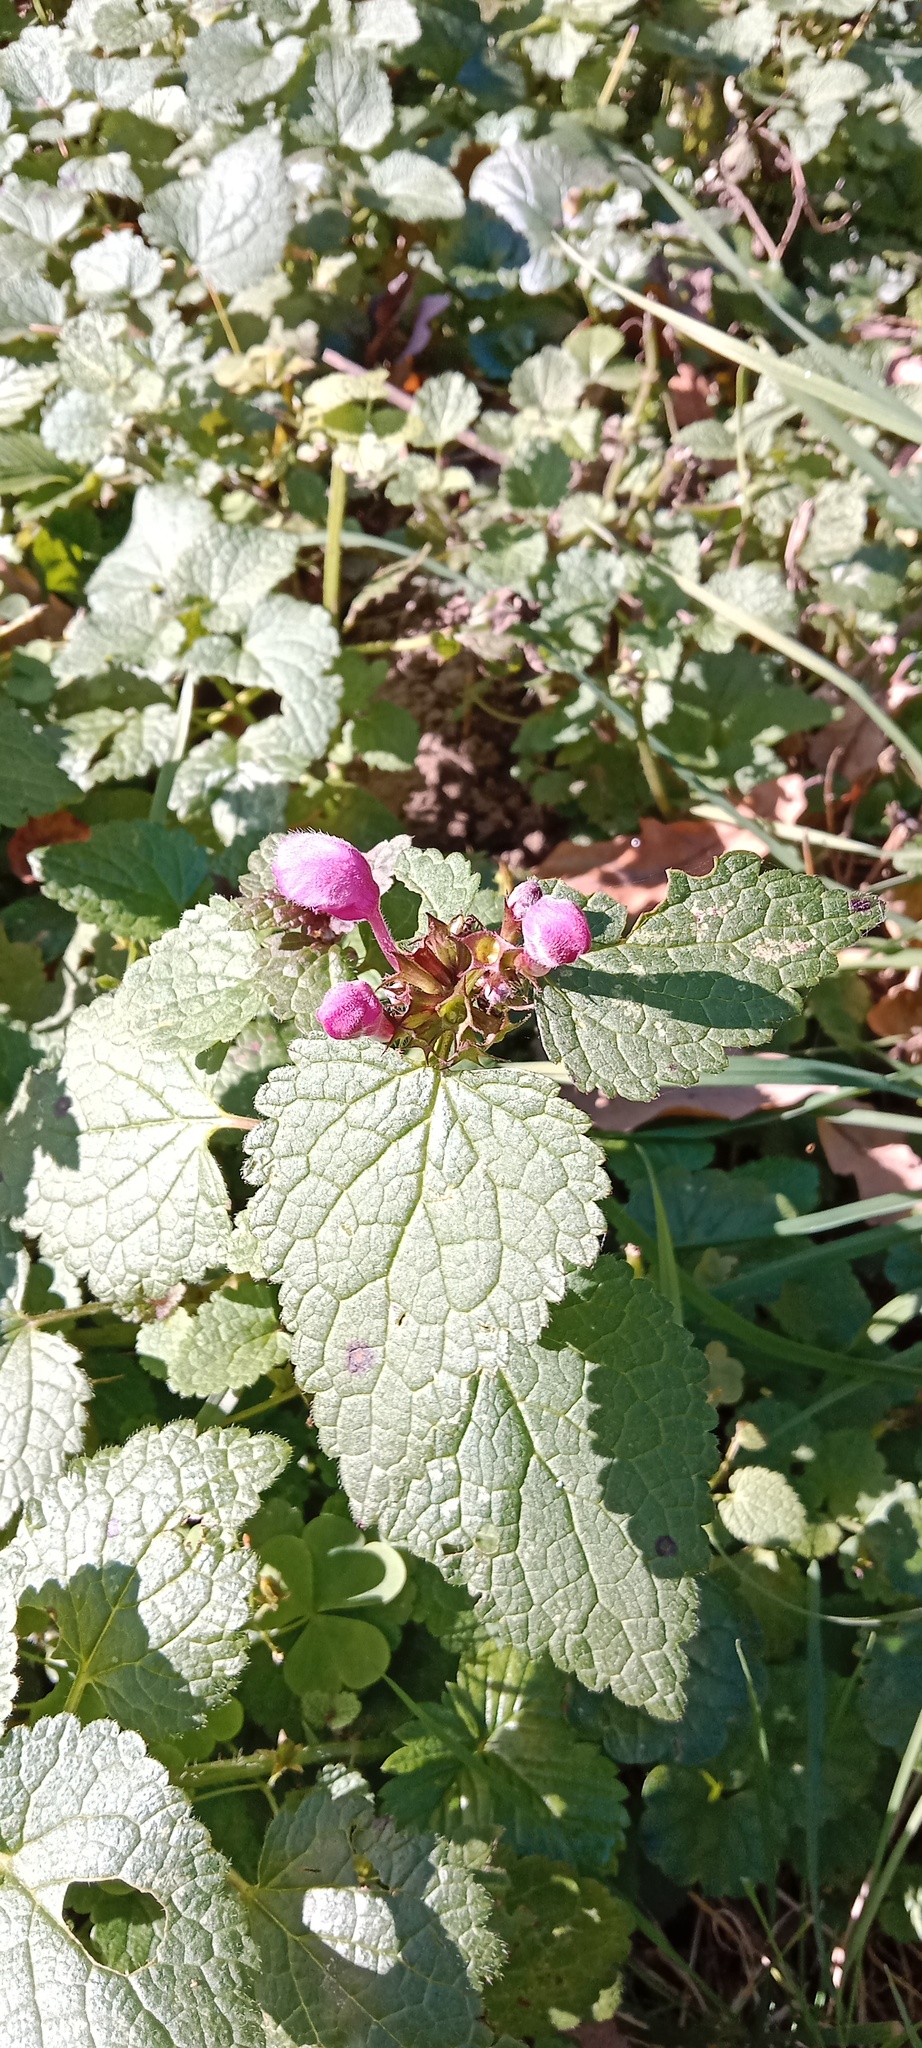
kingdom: Plantae
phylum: Tracheophyta
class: Magnoliopsida
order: Lamiales
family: Lamiaceae
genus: Lamium
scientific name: Lamium maculatum
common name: Spotted dead-nettle
